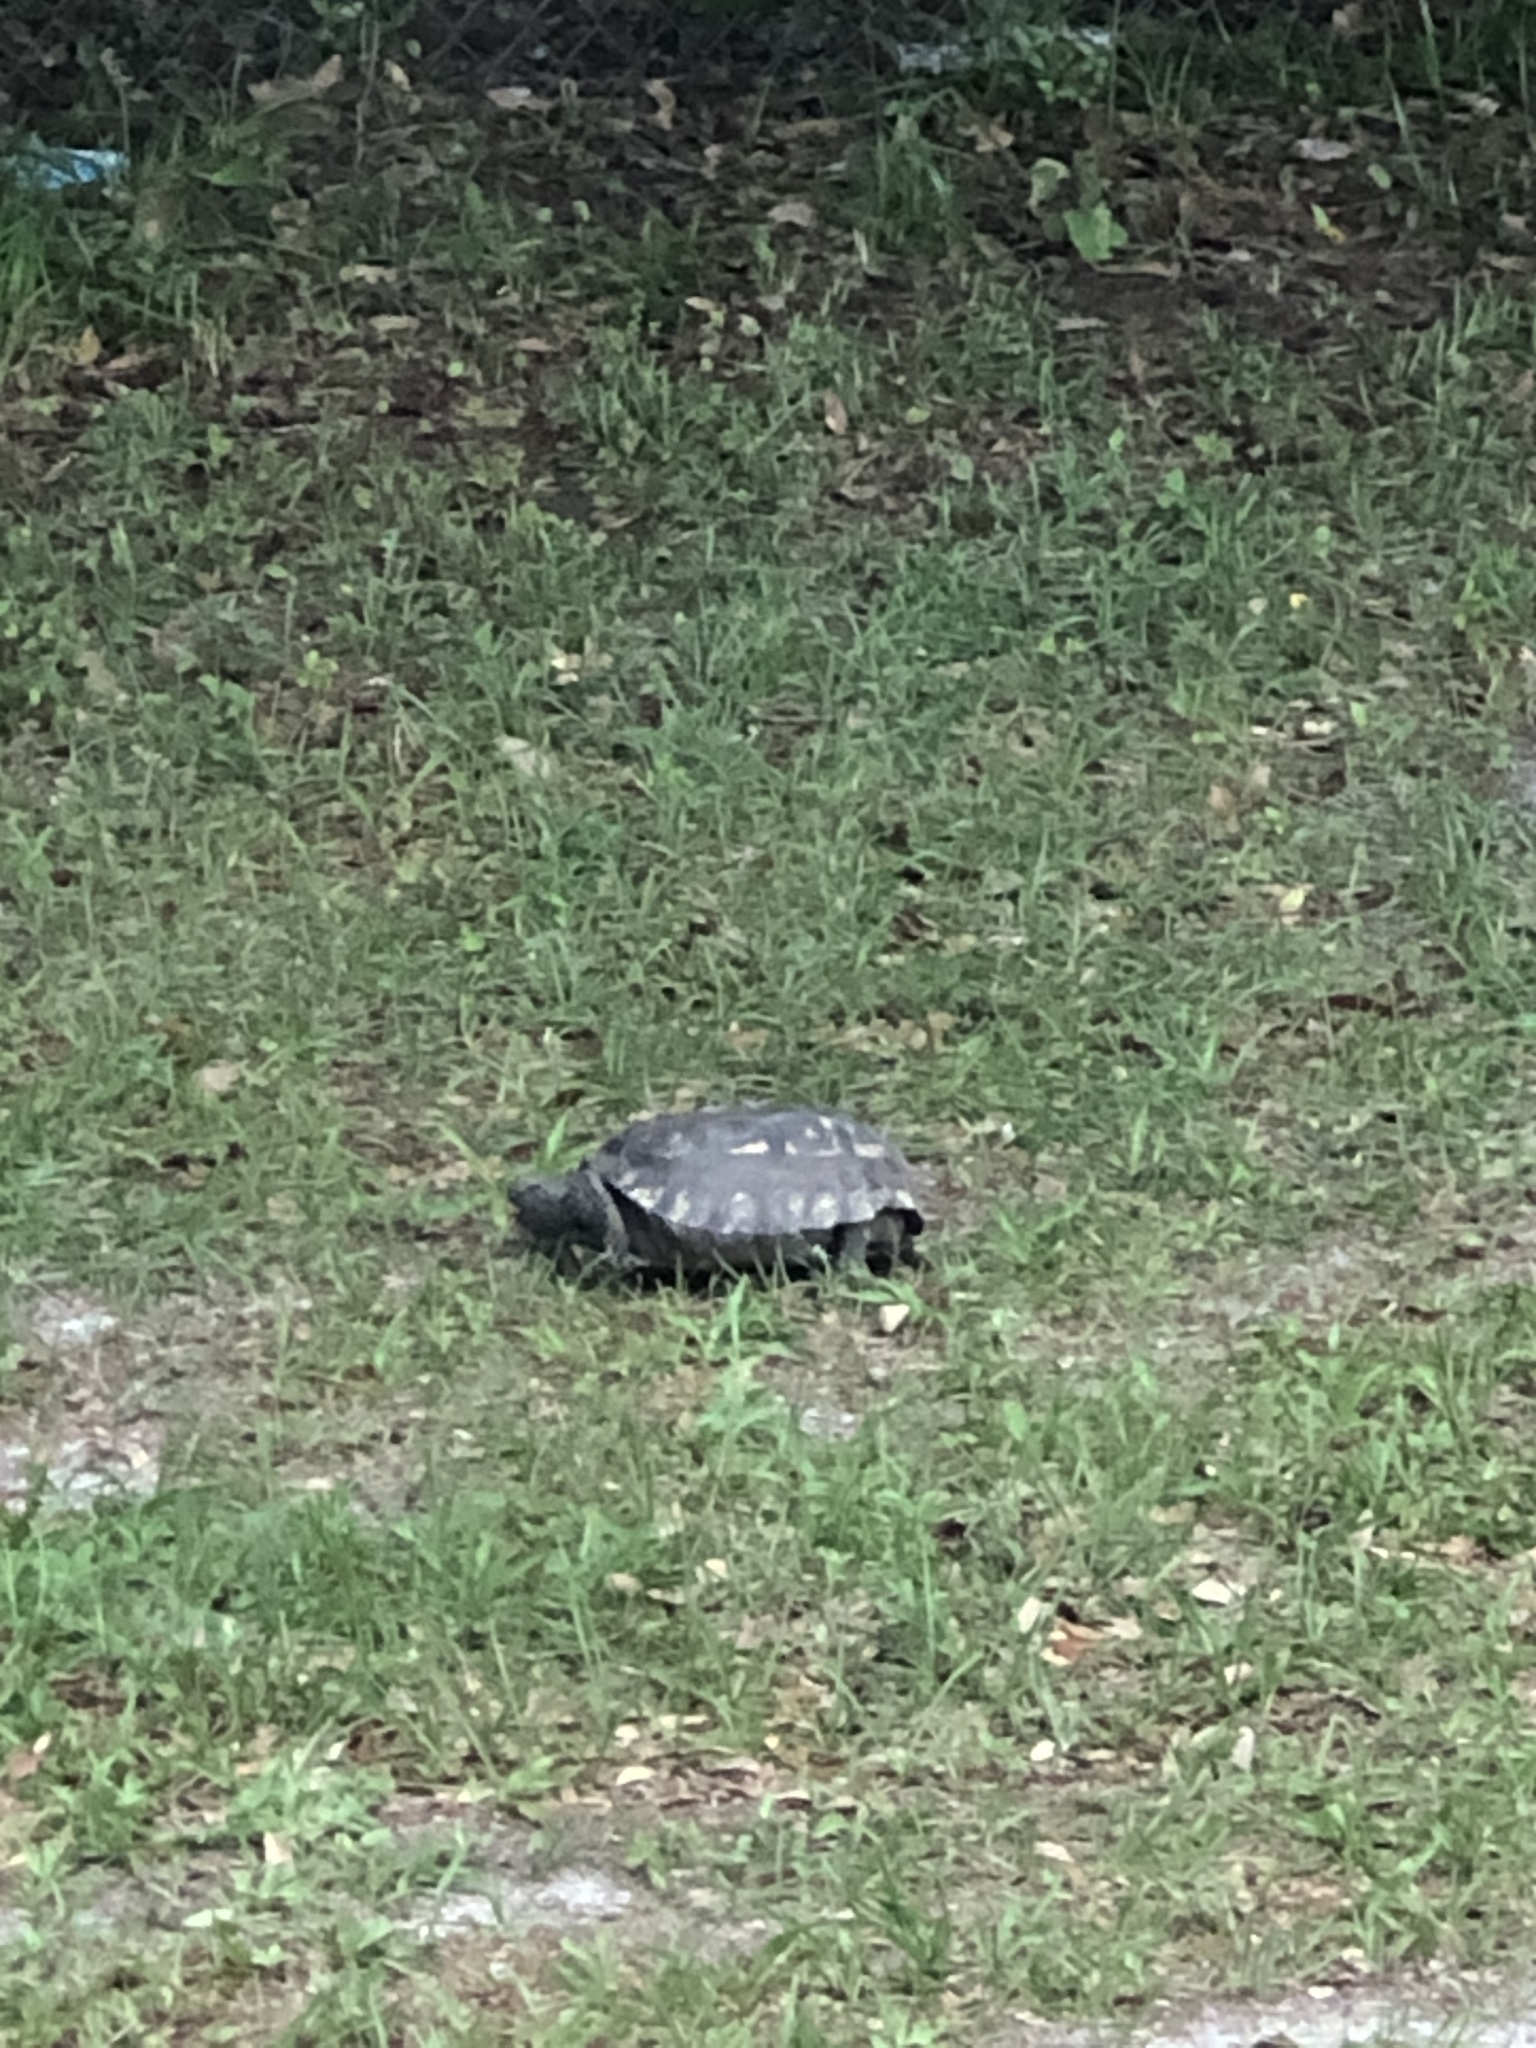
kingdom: Animalia
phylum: Chordata
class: Testudines
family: Testudinidae
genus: Gopherus
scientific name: Gopherus polyphemus
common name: Florida gopher tortoise
